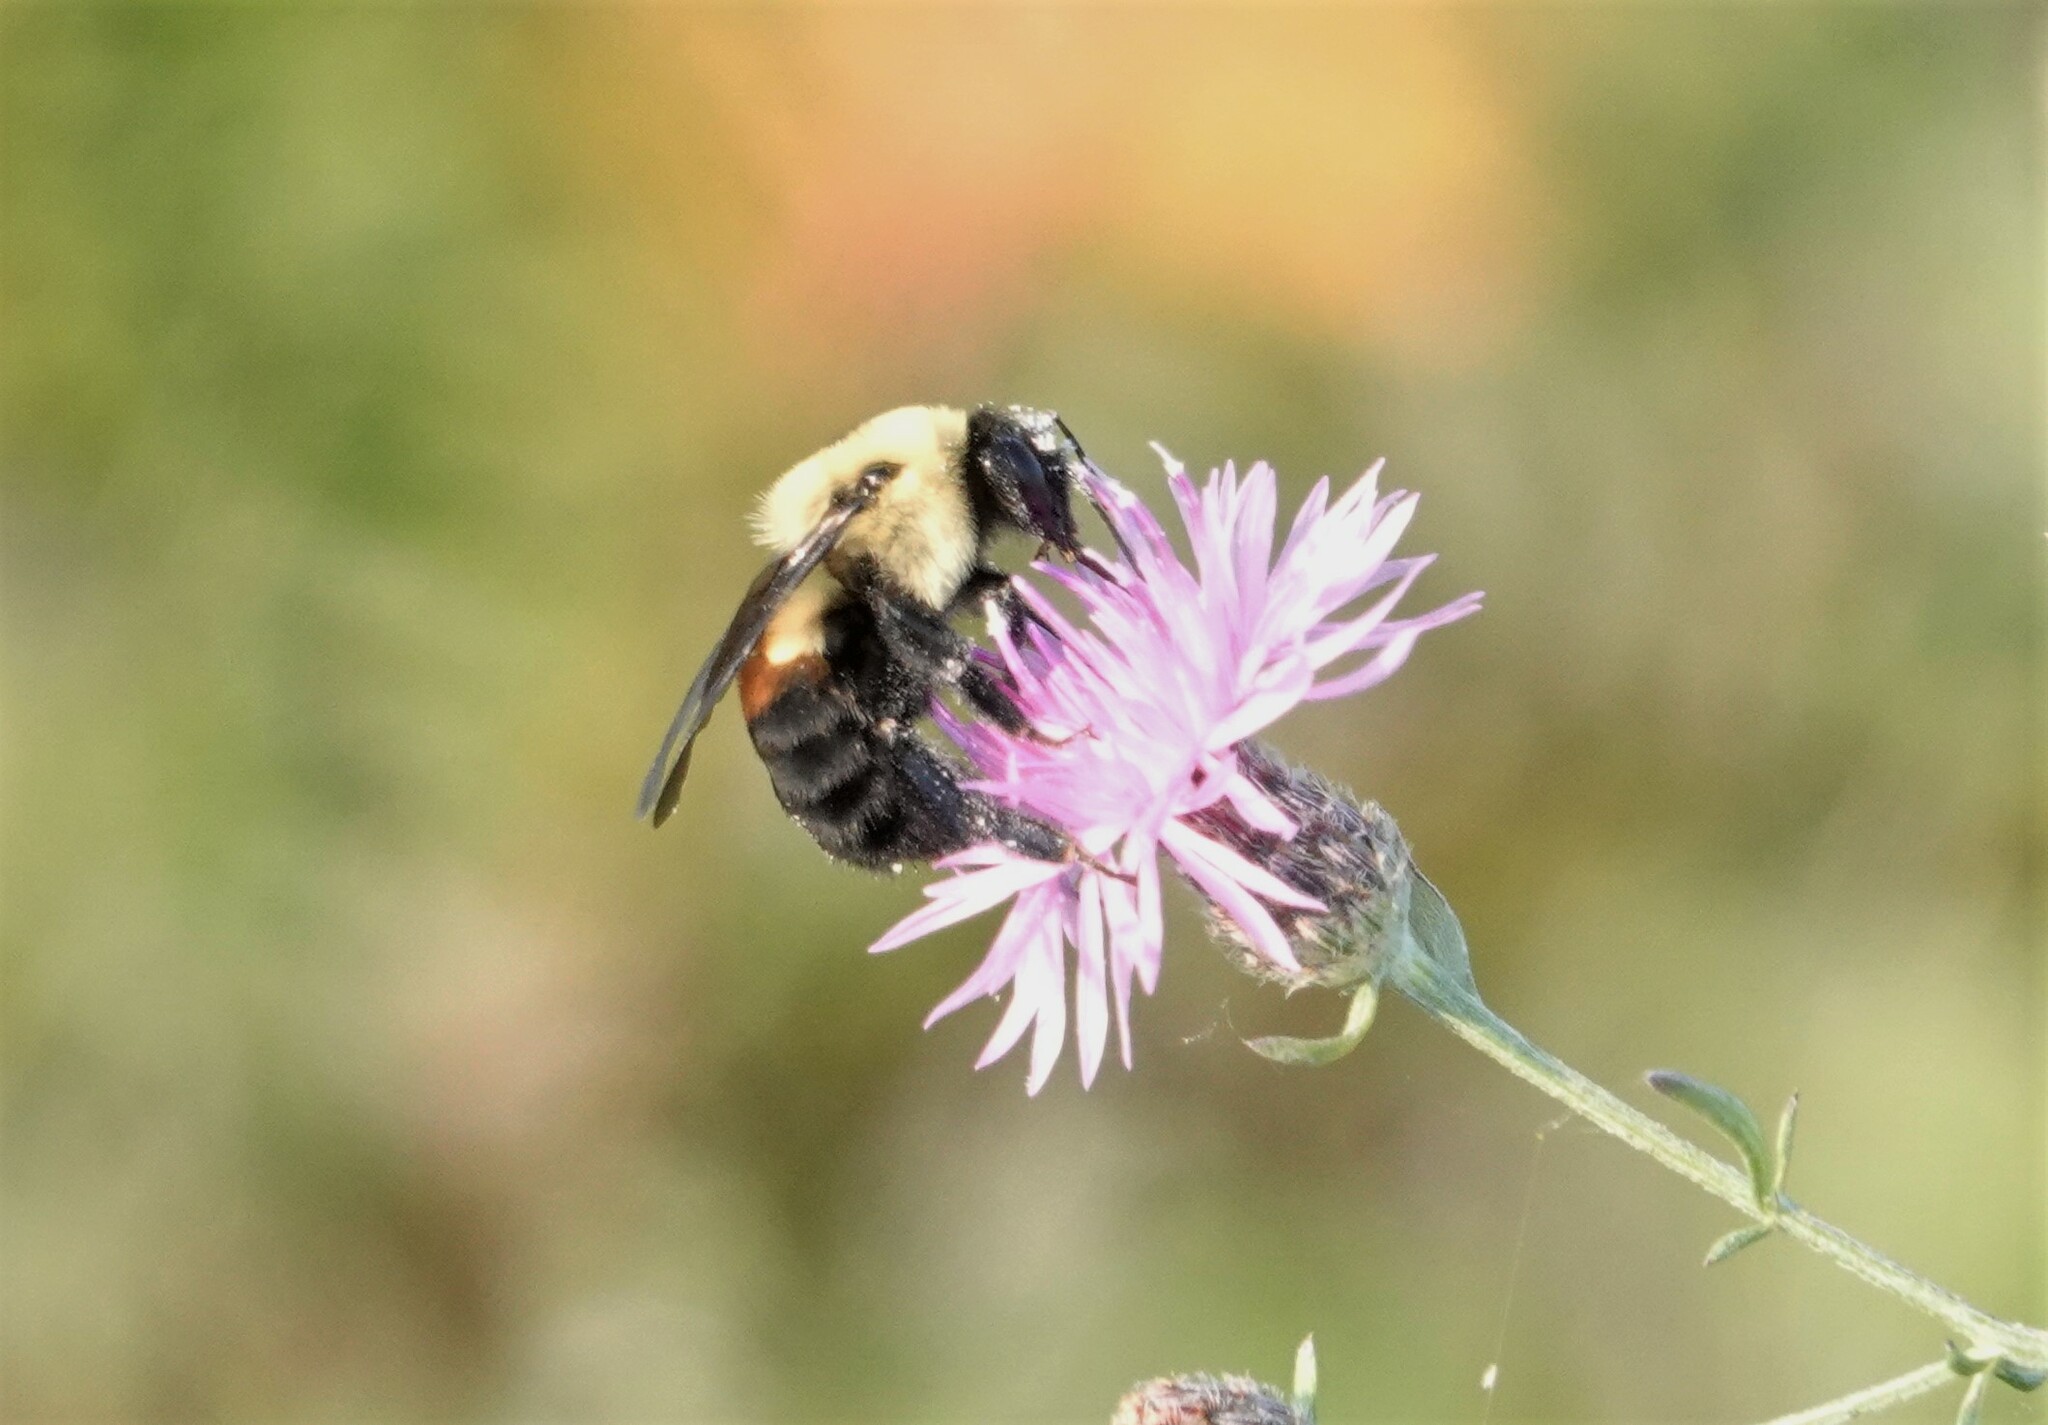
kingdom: Animalia
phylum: Arthropoda
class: Insecta
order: Hymenoptera
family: Apidae
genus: Bombus
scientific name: Bombus griseocollis
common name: Brown-belted bumble bee
